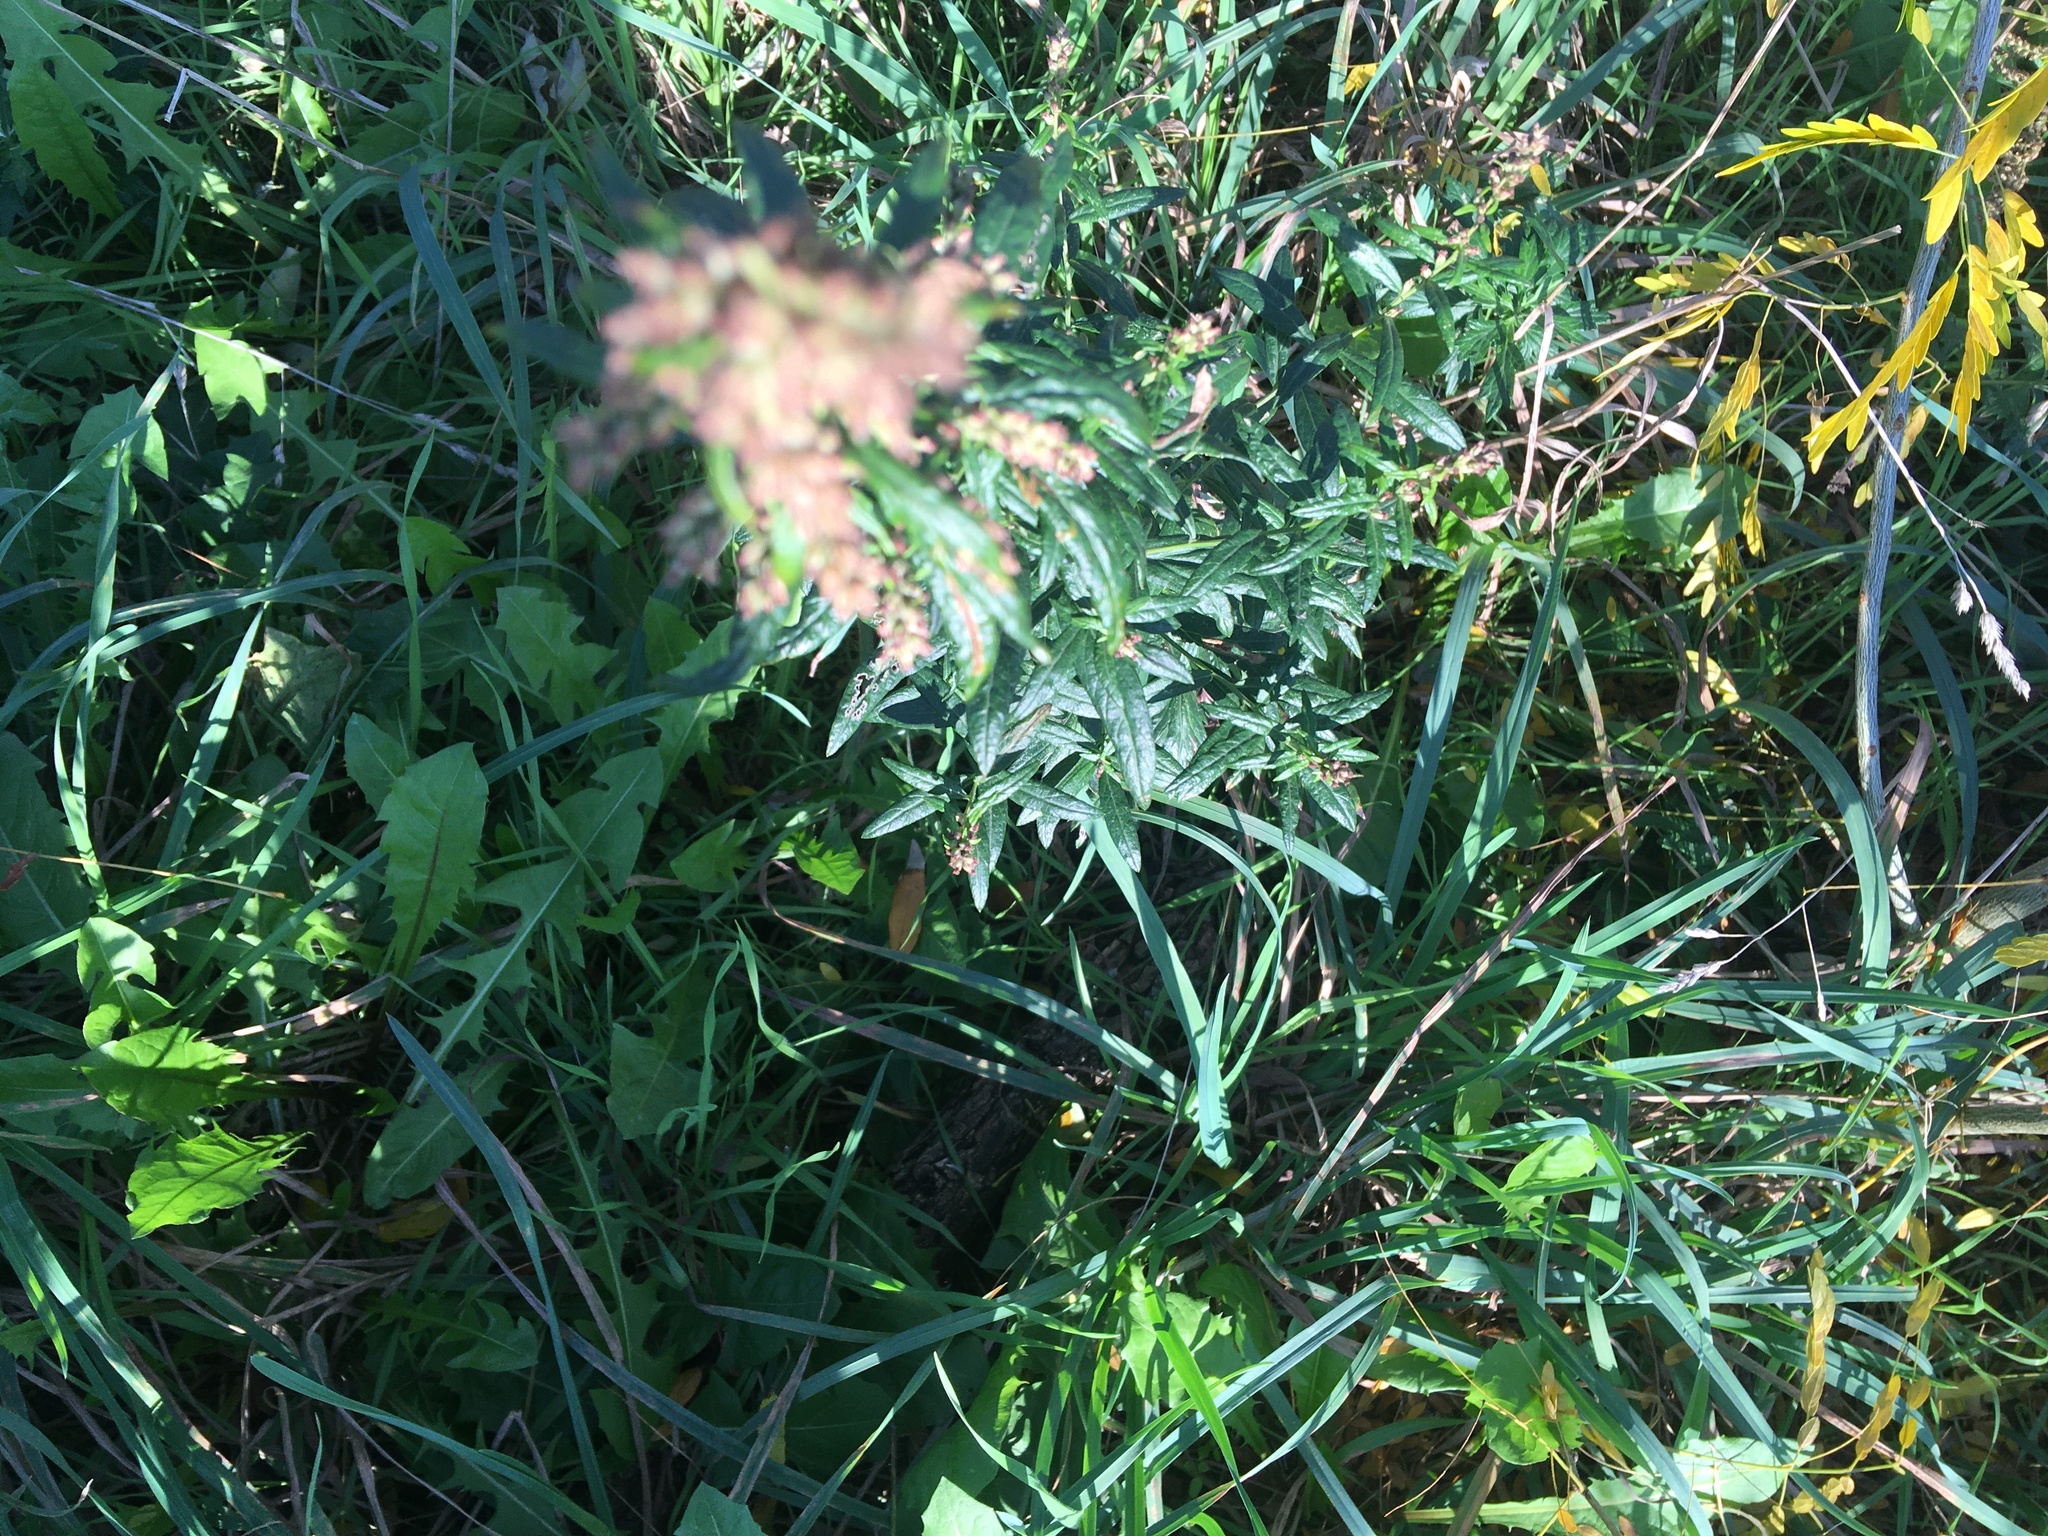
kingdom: Plantae
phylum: Tracheophyta
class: Magnoliopsida
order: Asterales
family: Asteraceae
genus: Artemisia
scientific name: Artemisia vulgaris
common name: Mugwort
